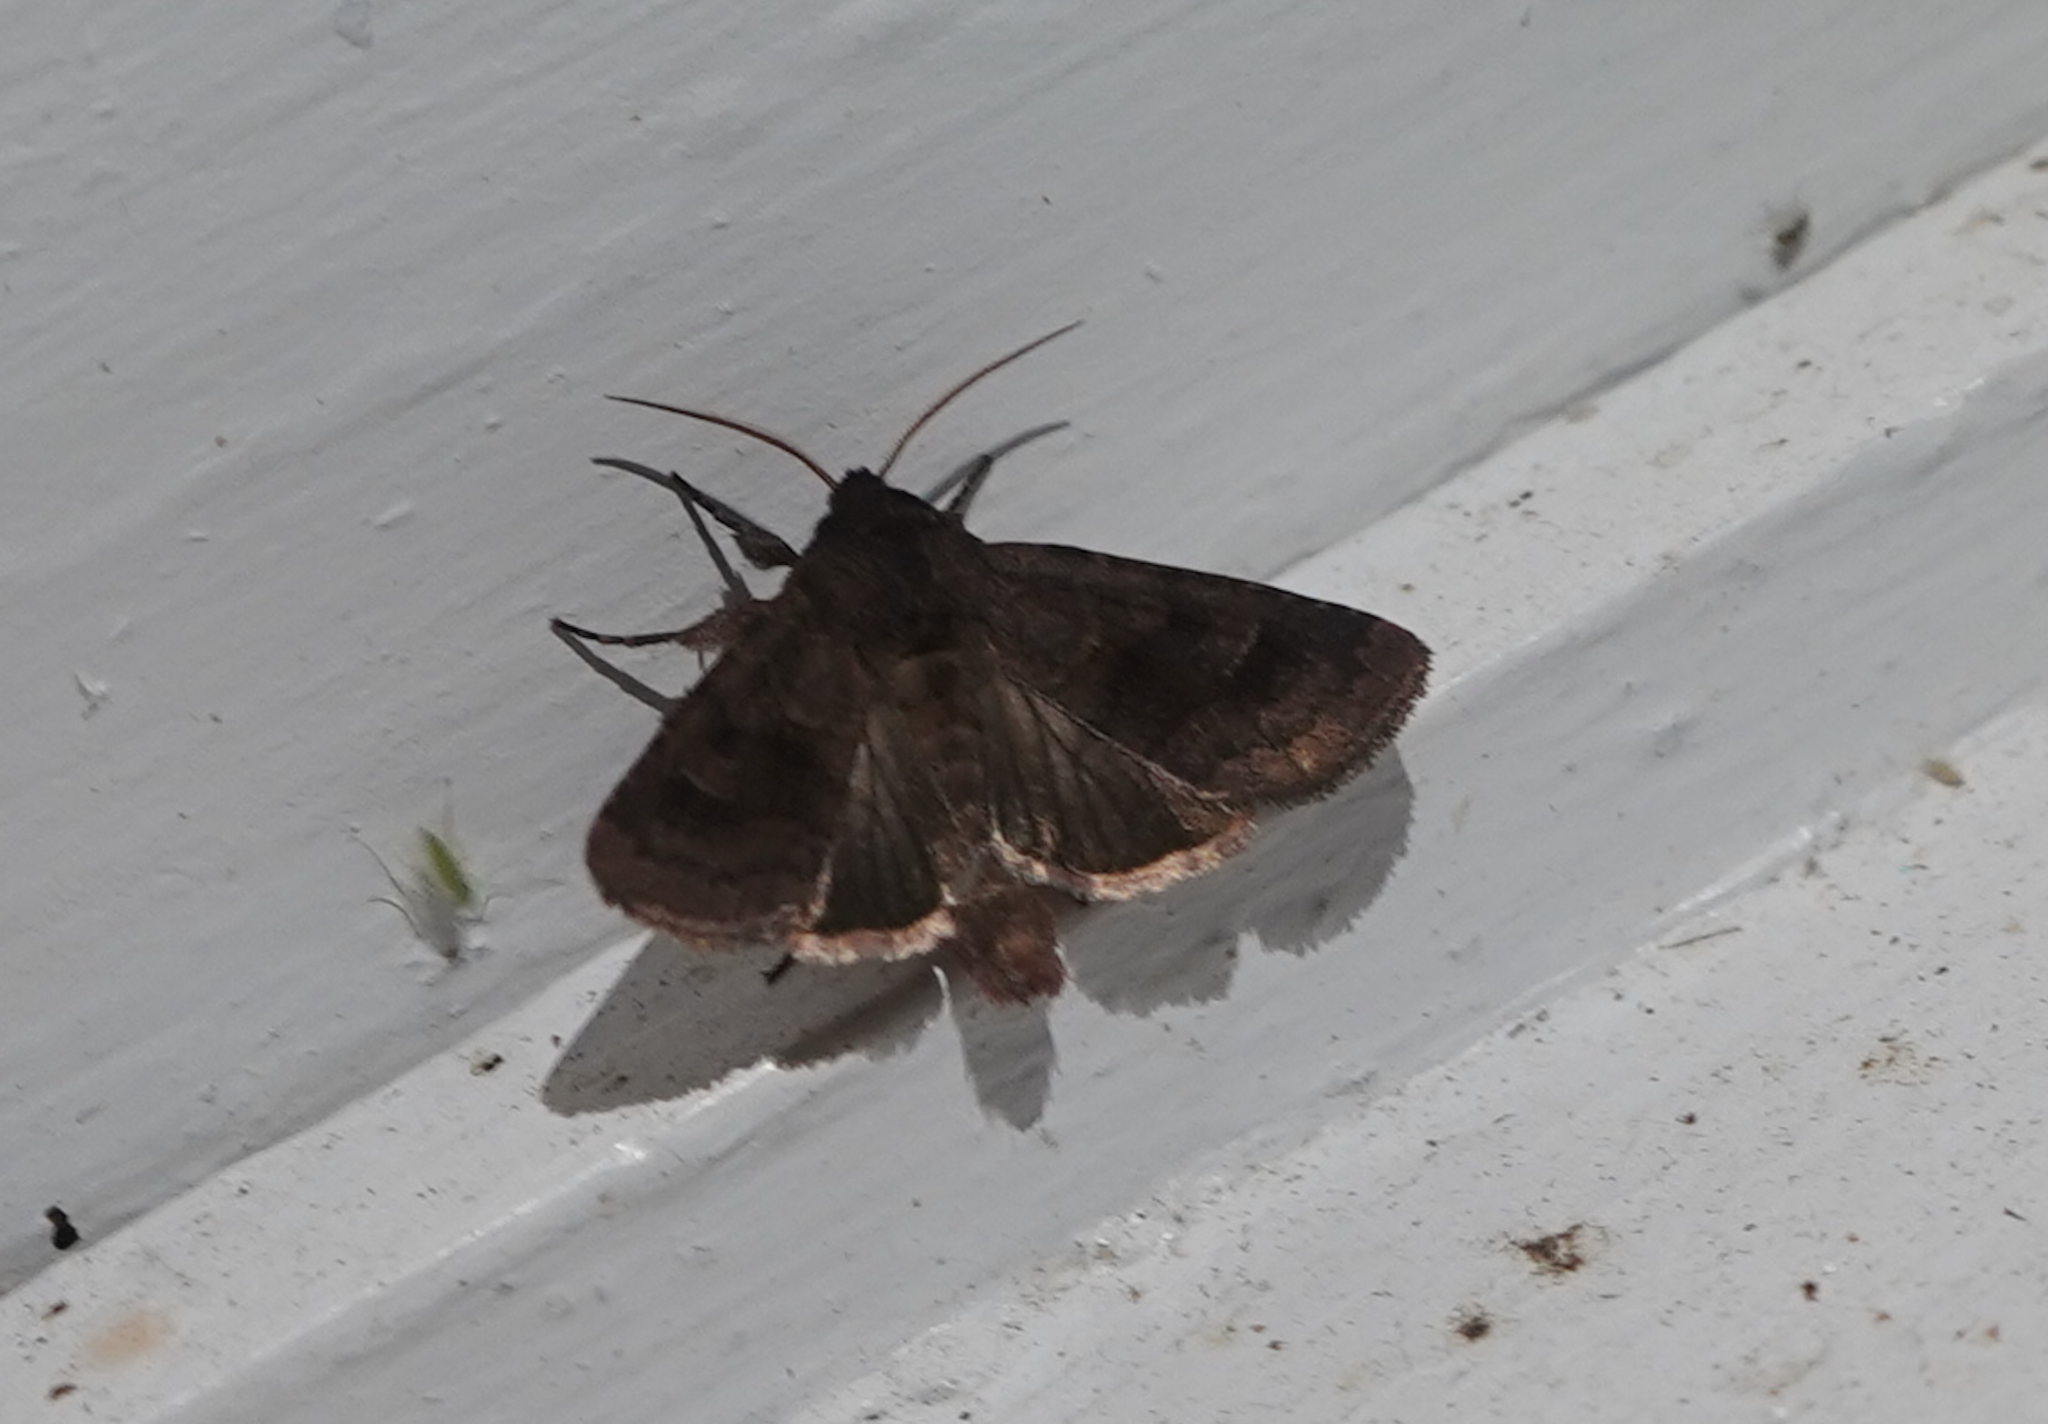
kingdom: Animalia
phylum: Arthropoda
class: Insecta
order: Lepidoptera
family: Noctuidae
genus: Nephelodes
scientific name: Nephelodes minians
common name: Bronzed cutworm
